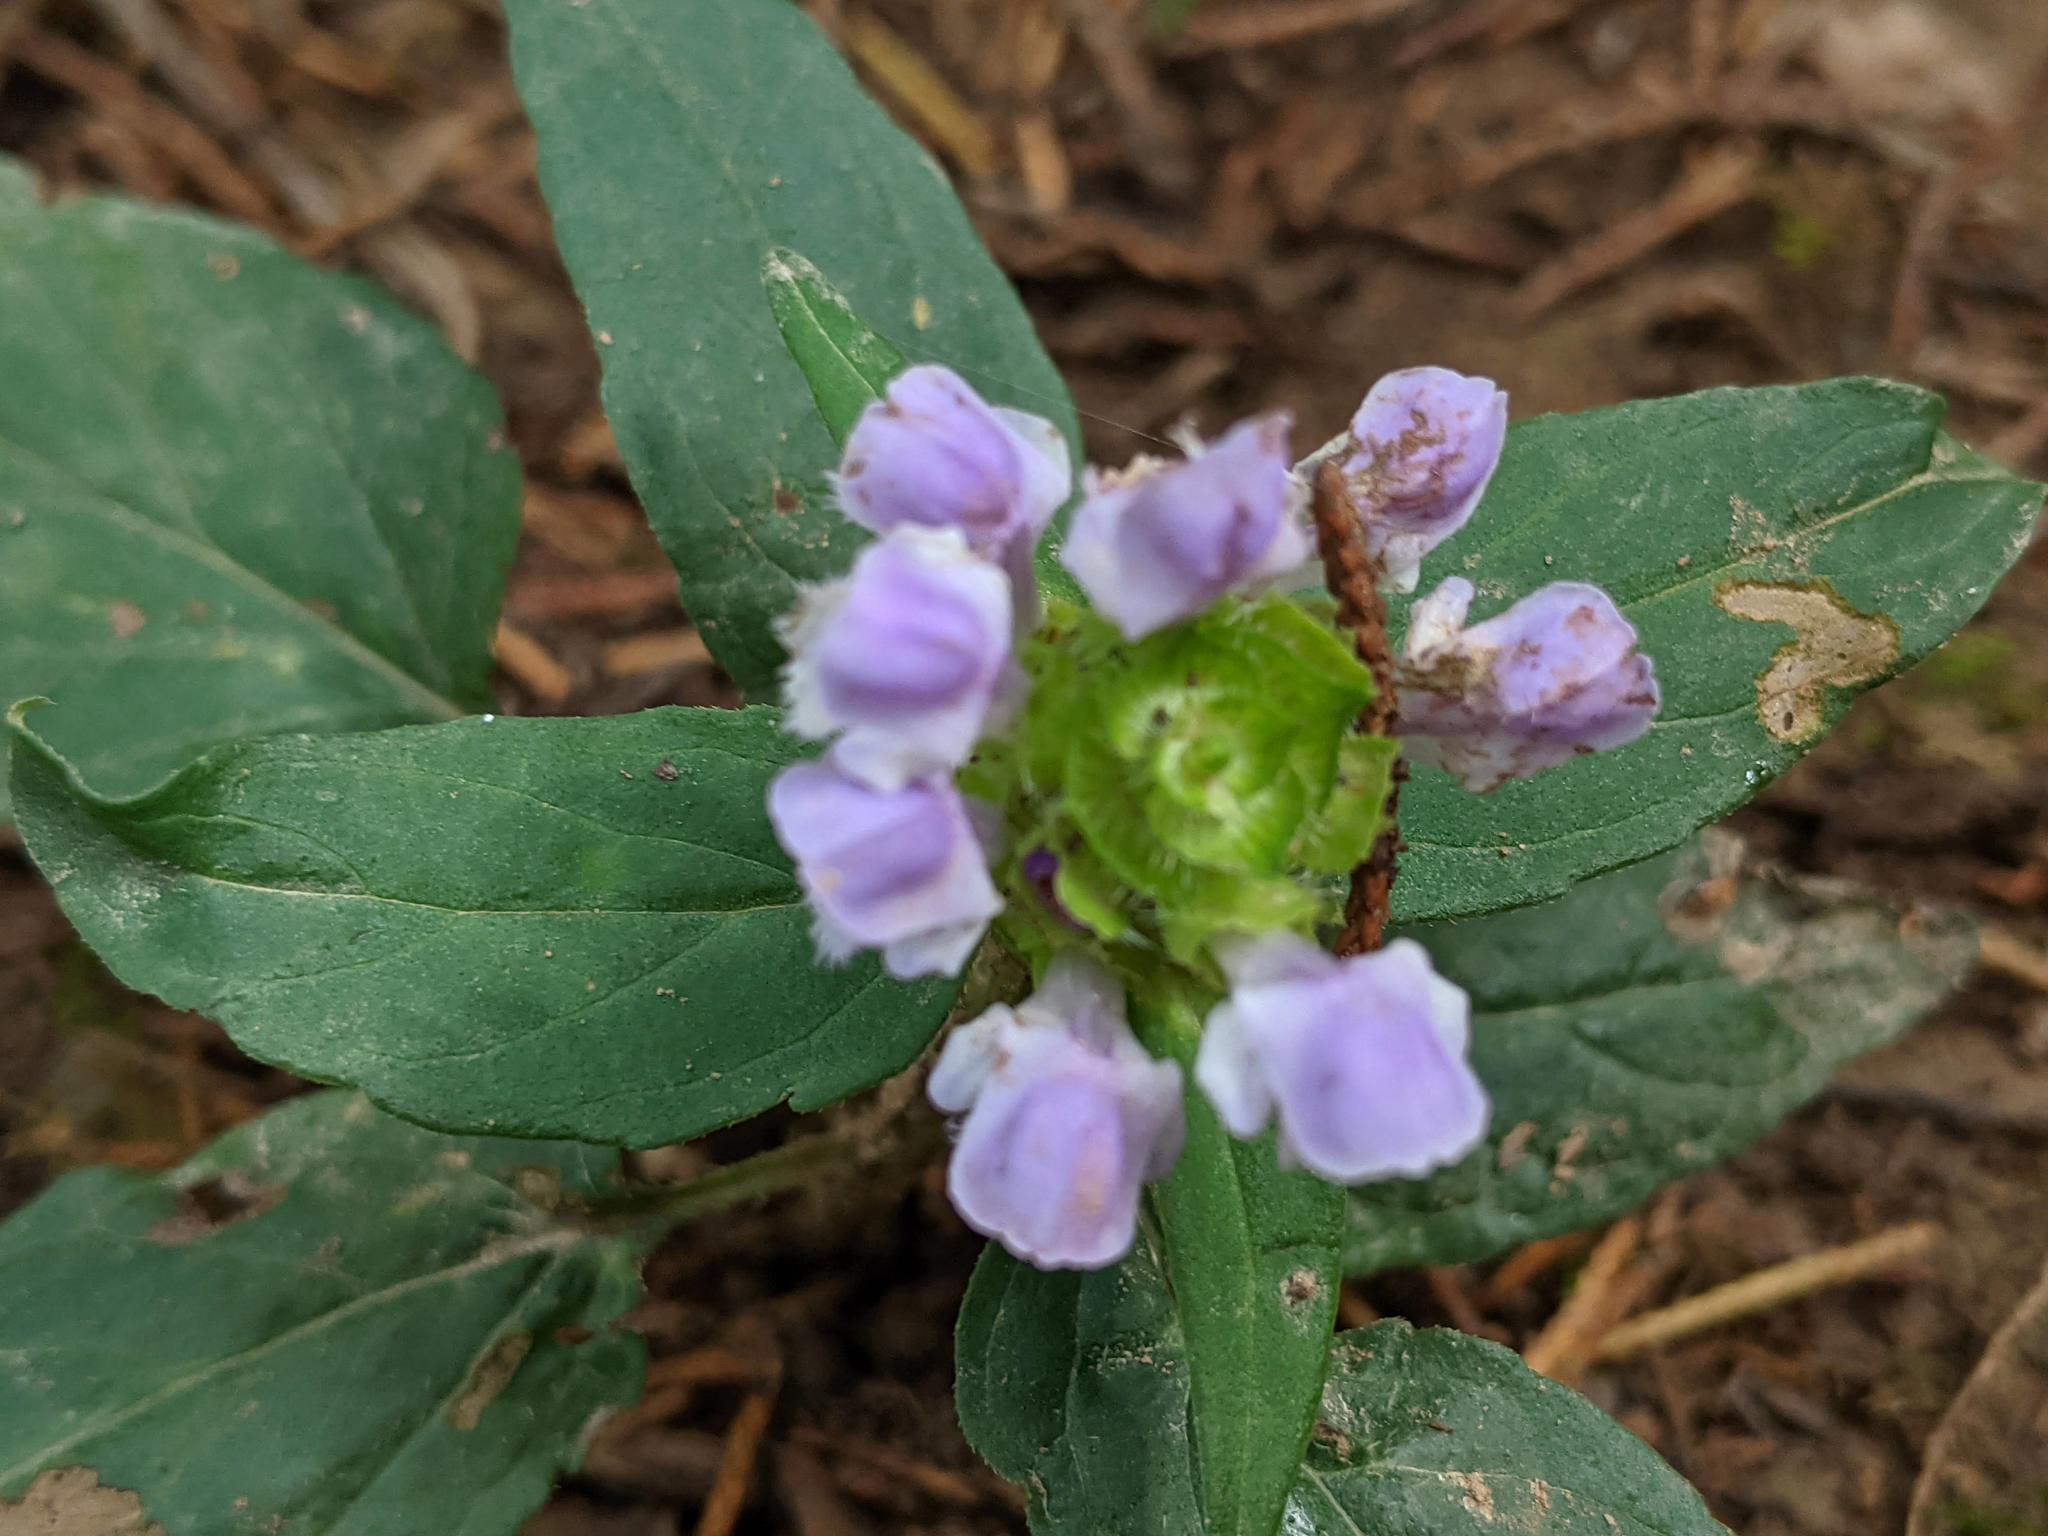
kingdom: Plantae
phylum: Tracheophyta
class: Magnoliopsida
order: Lamiales
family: Lamiaceae
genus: Prunella
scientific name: Prunella vulgaris
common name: Heal-all
